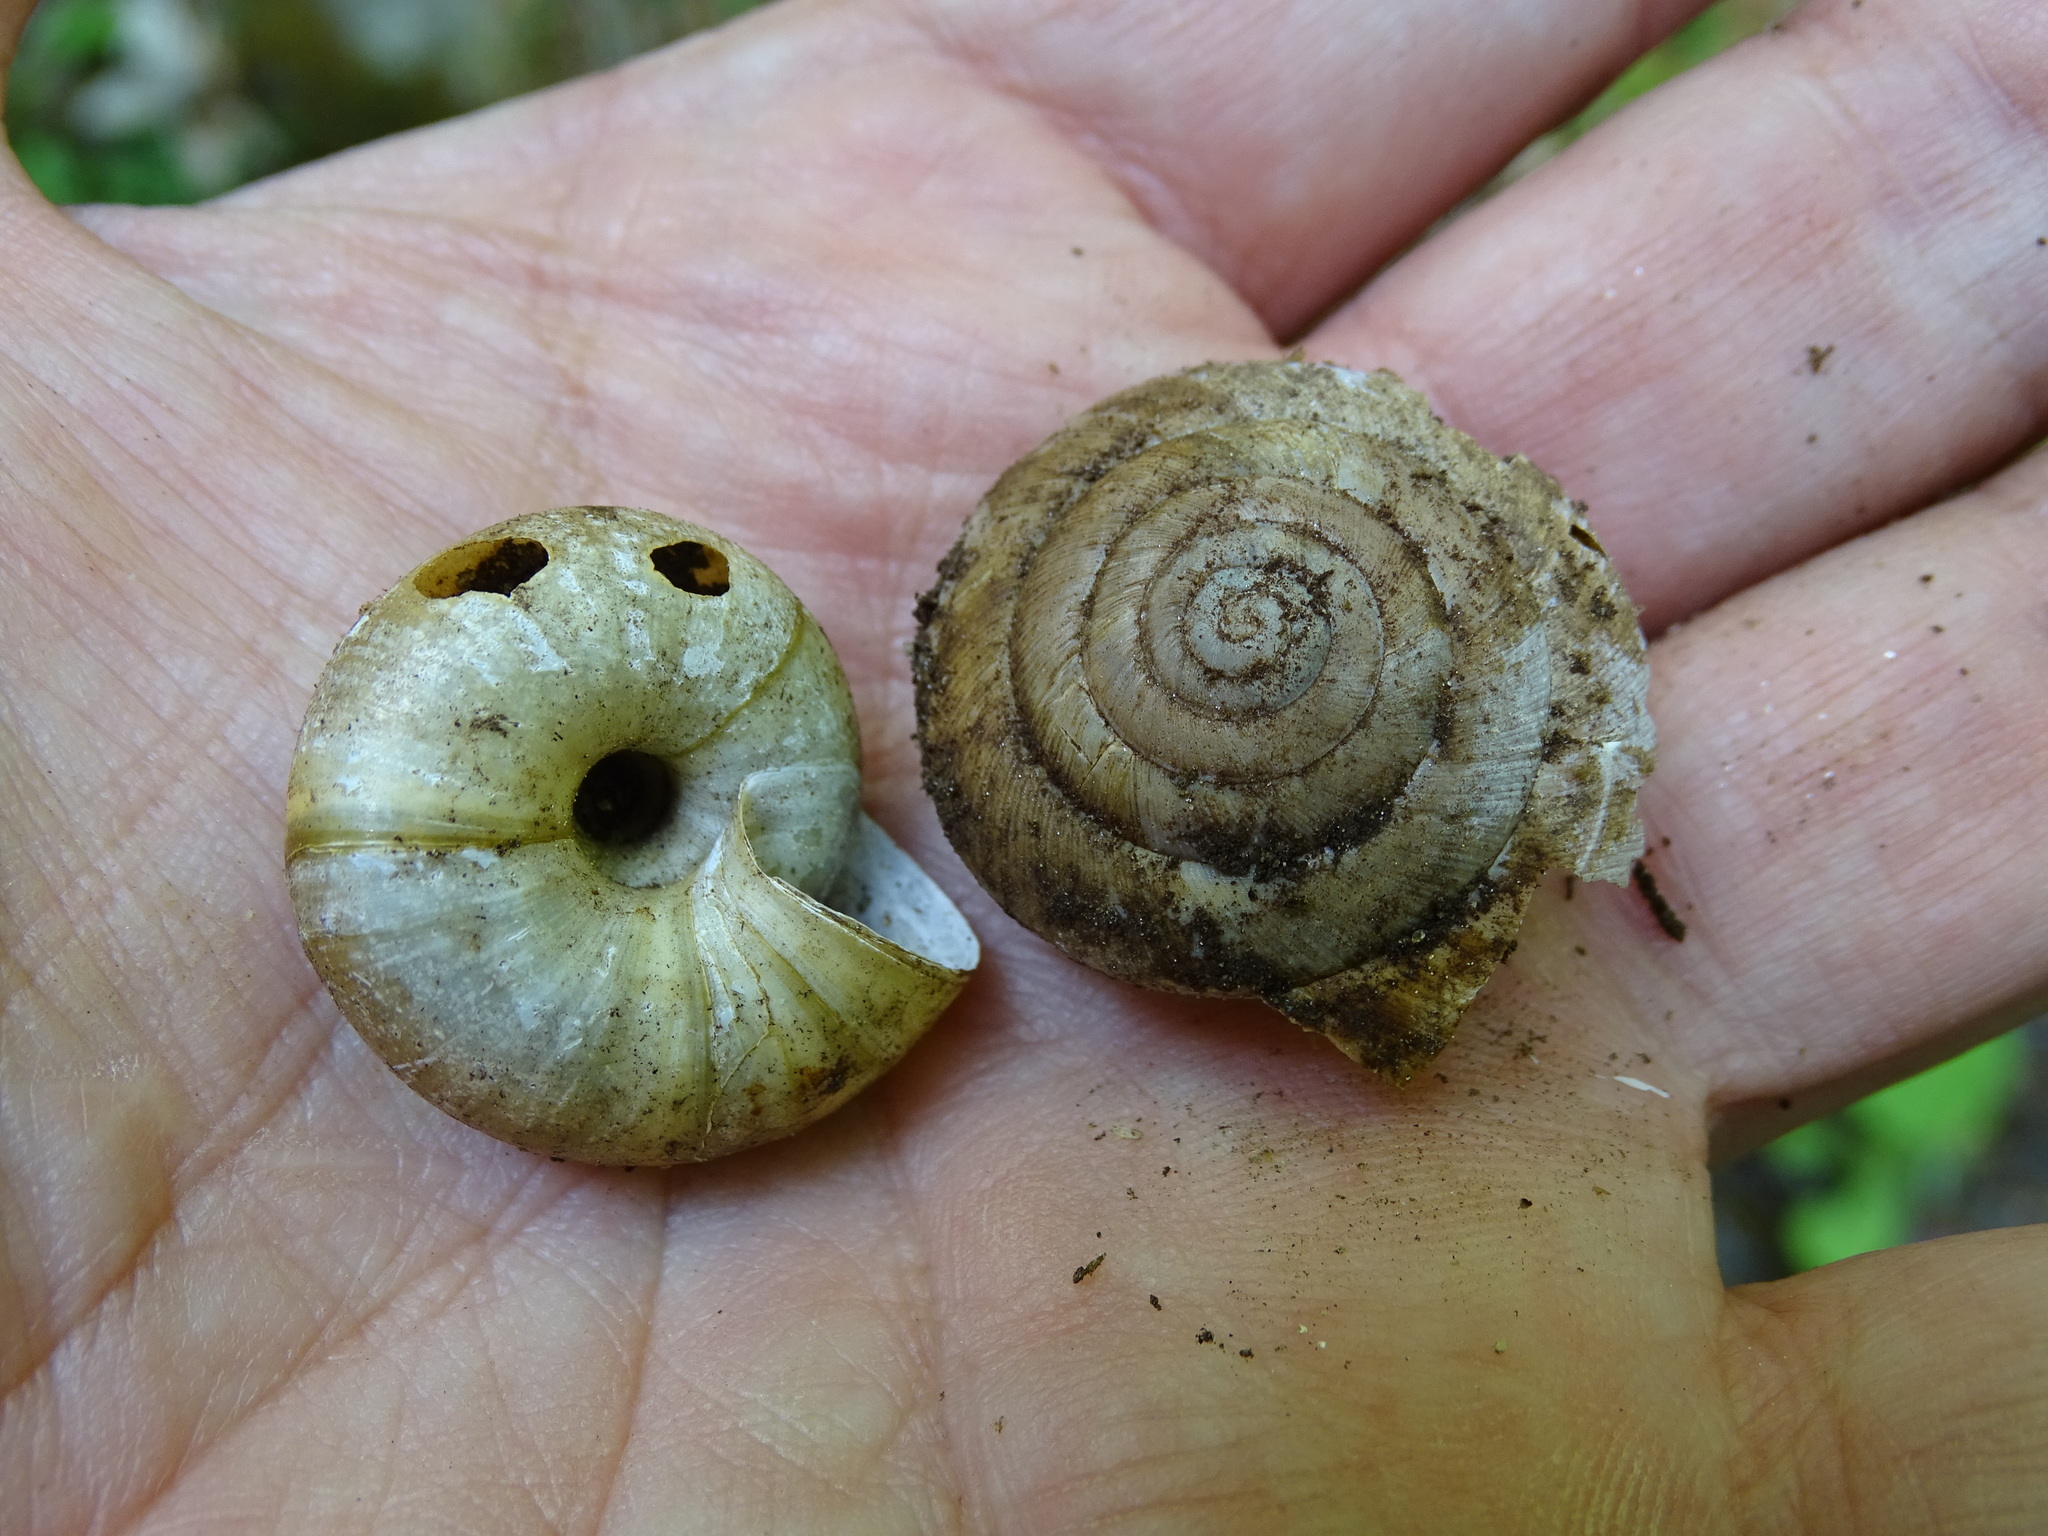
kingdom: Animalia
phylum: Mollusca
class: Gastropoda
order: Stylommatophora
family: Zonitidae
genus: Aegopis
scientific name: Aegopis verticillus
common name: Giant glass snail
